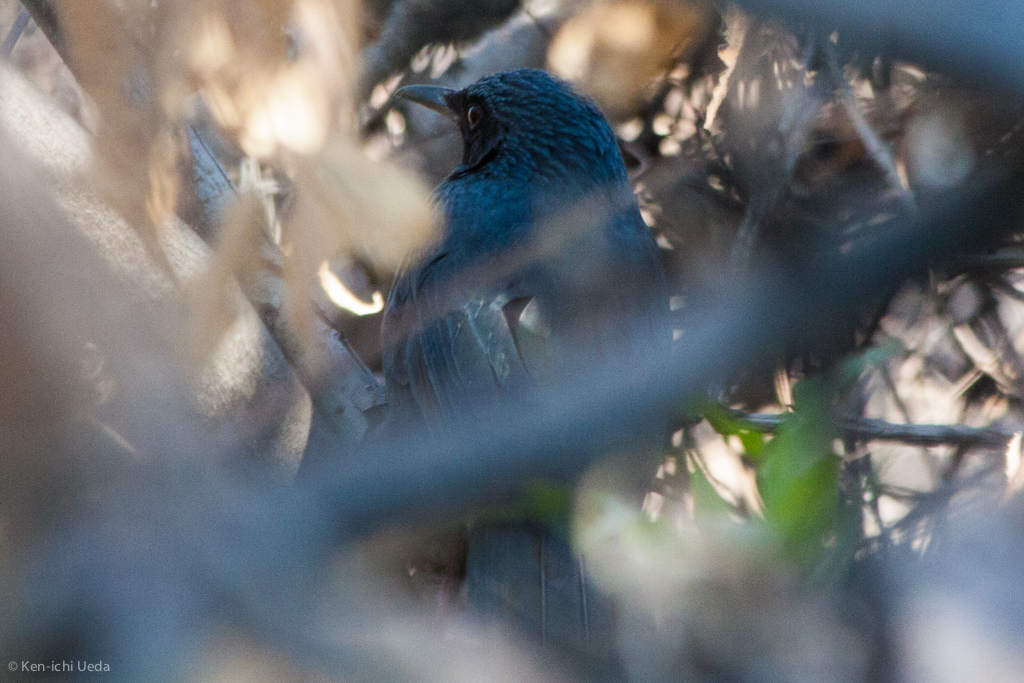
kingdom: Animalia
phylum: Chordata
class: Aves
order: Passeriformes
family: Mimidae
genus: Melanotis
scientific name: Melanotis caerulescens
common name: Blue mockingbird
